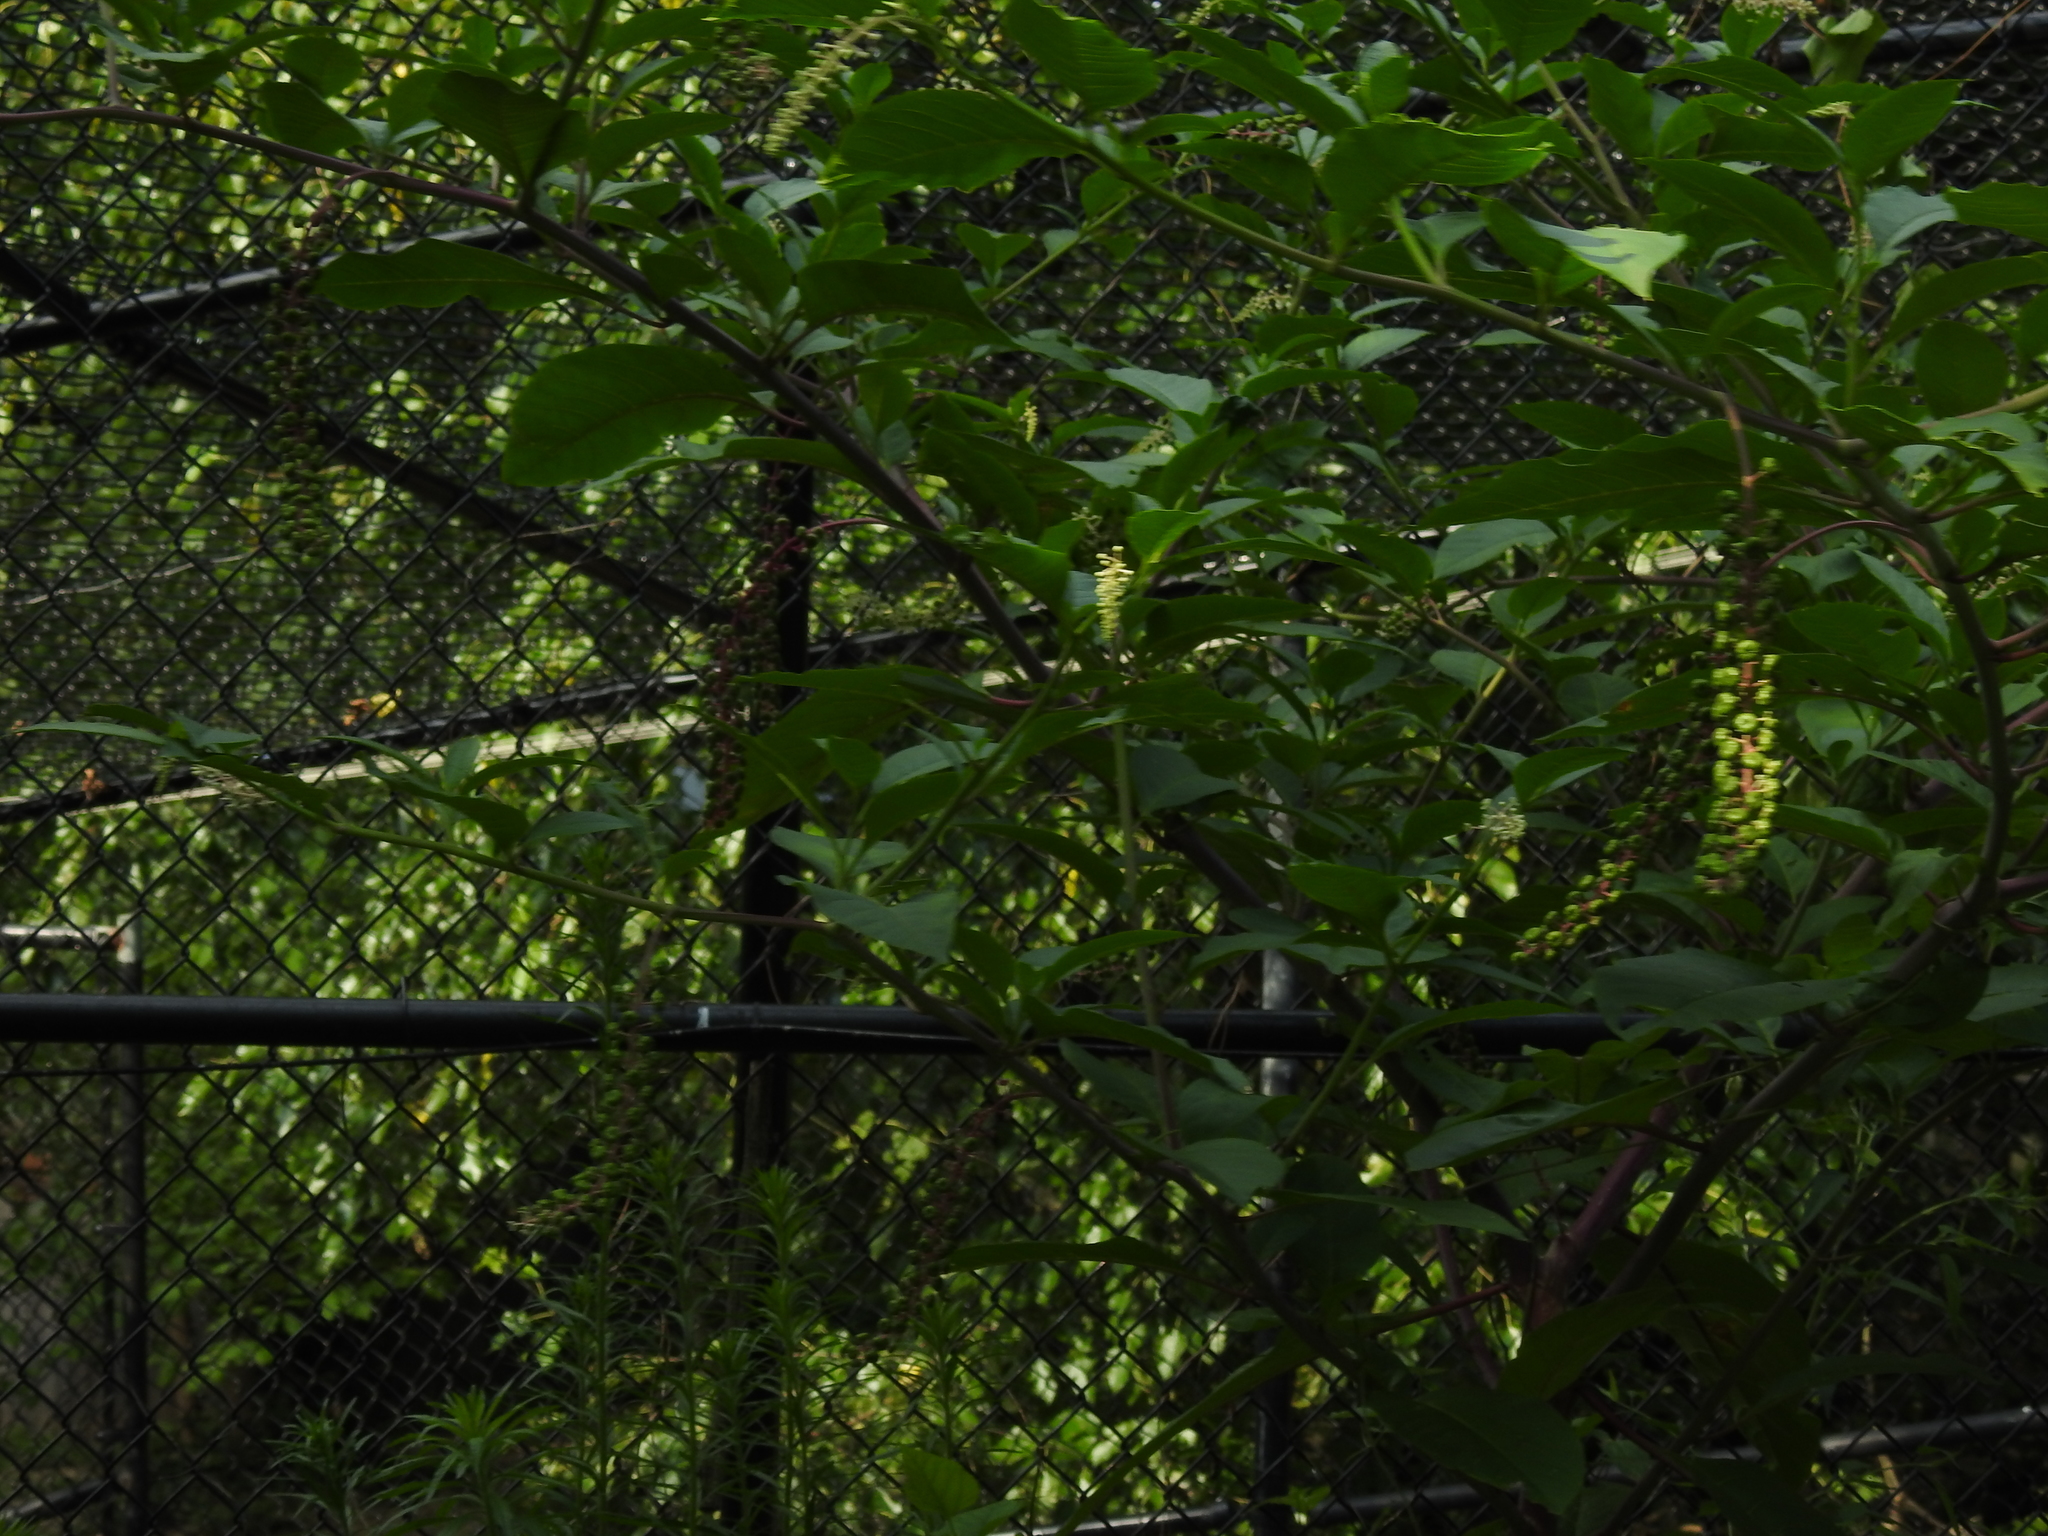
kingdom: Plantae
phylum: Tracheophyta
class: Magnoliopsida
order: Caryophyllales
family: Phytolaccaceae
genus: Phytolacca
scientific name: Phytolacca americana
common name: American pokeweed
